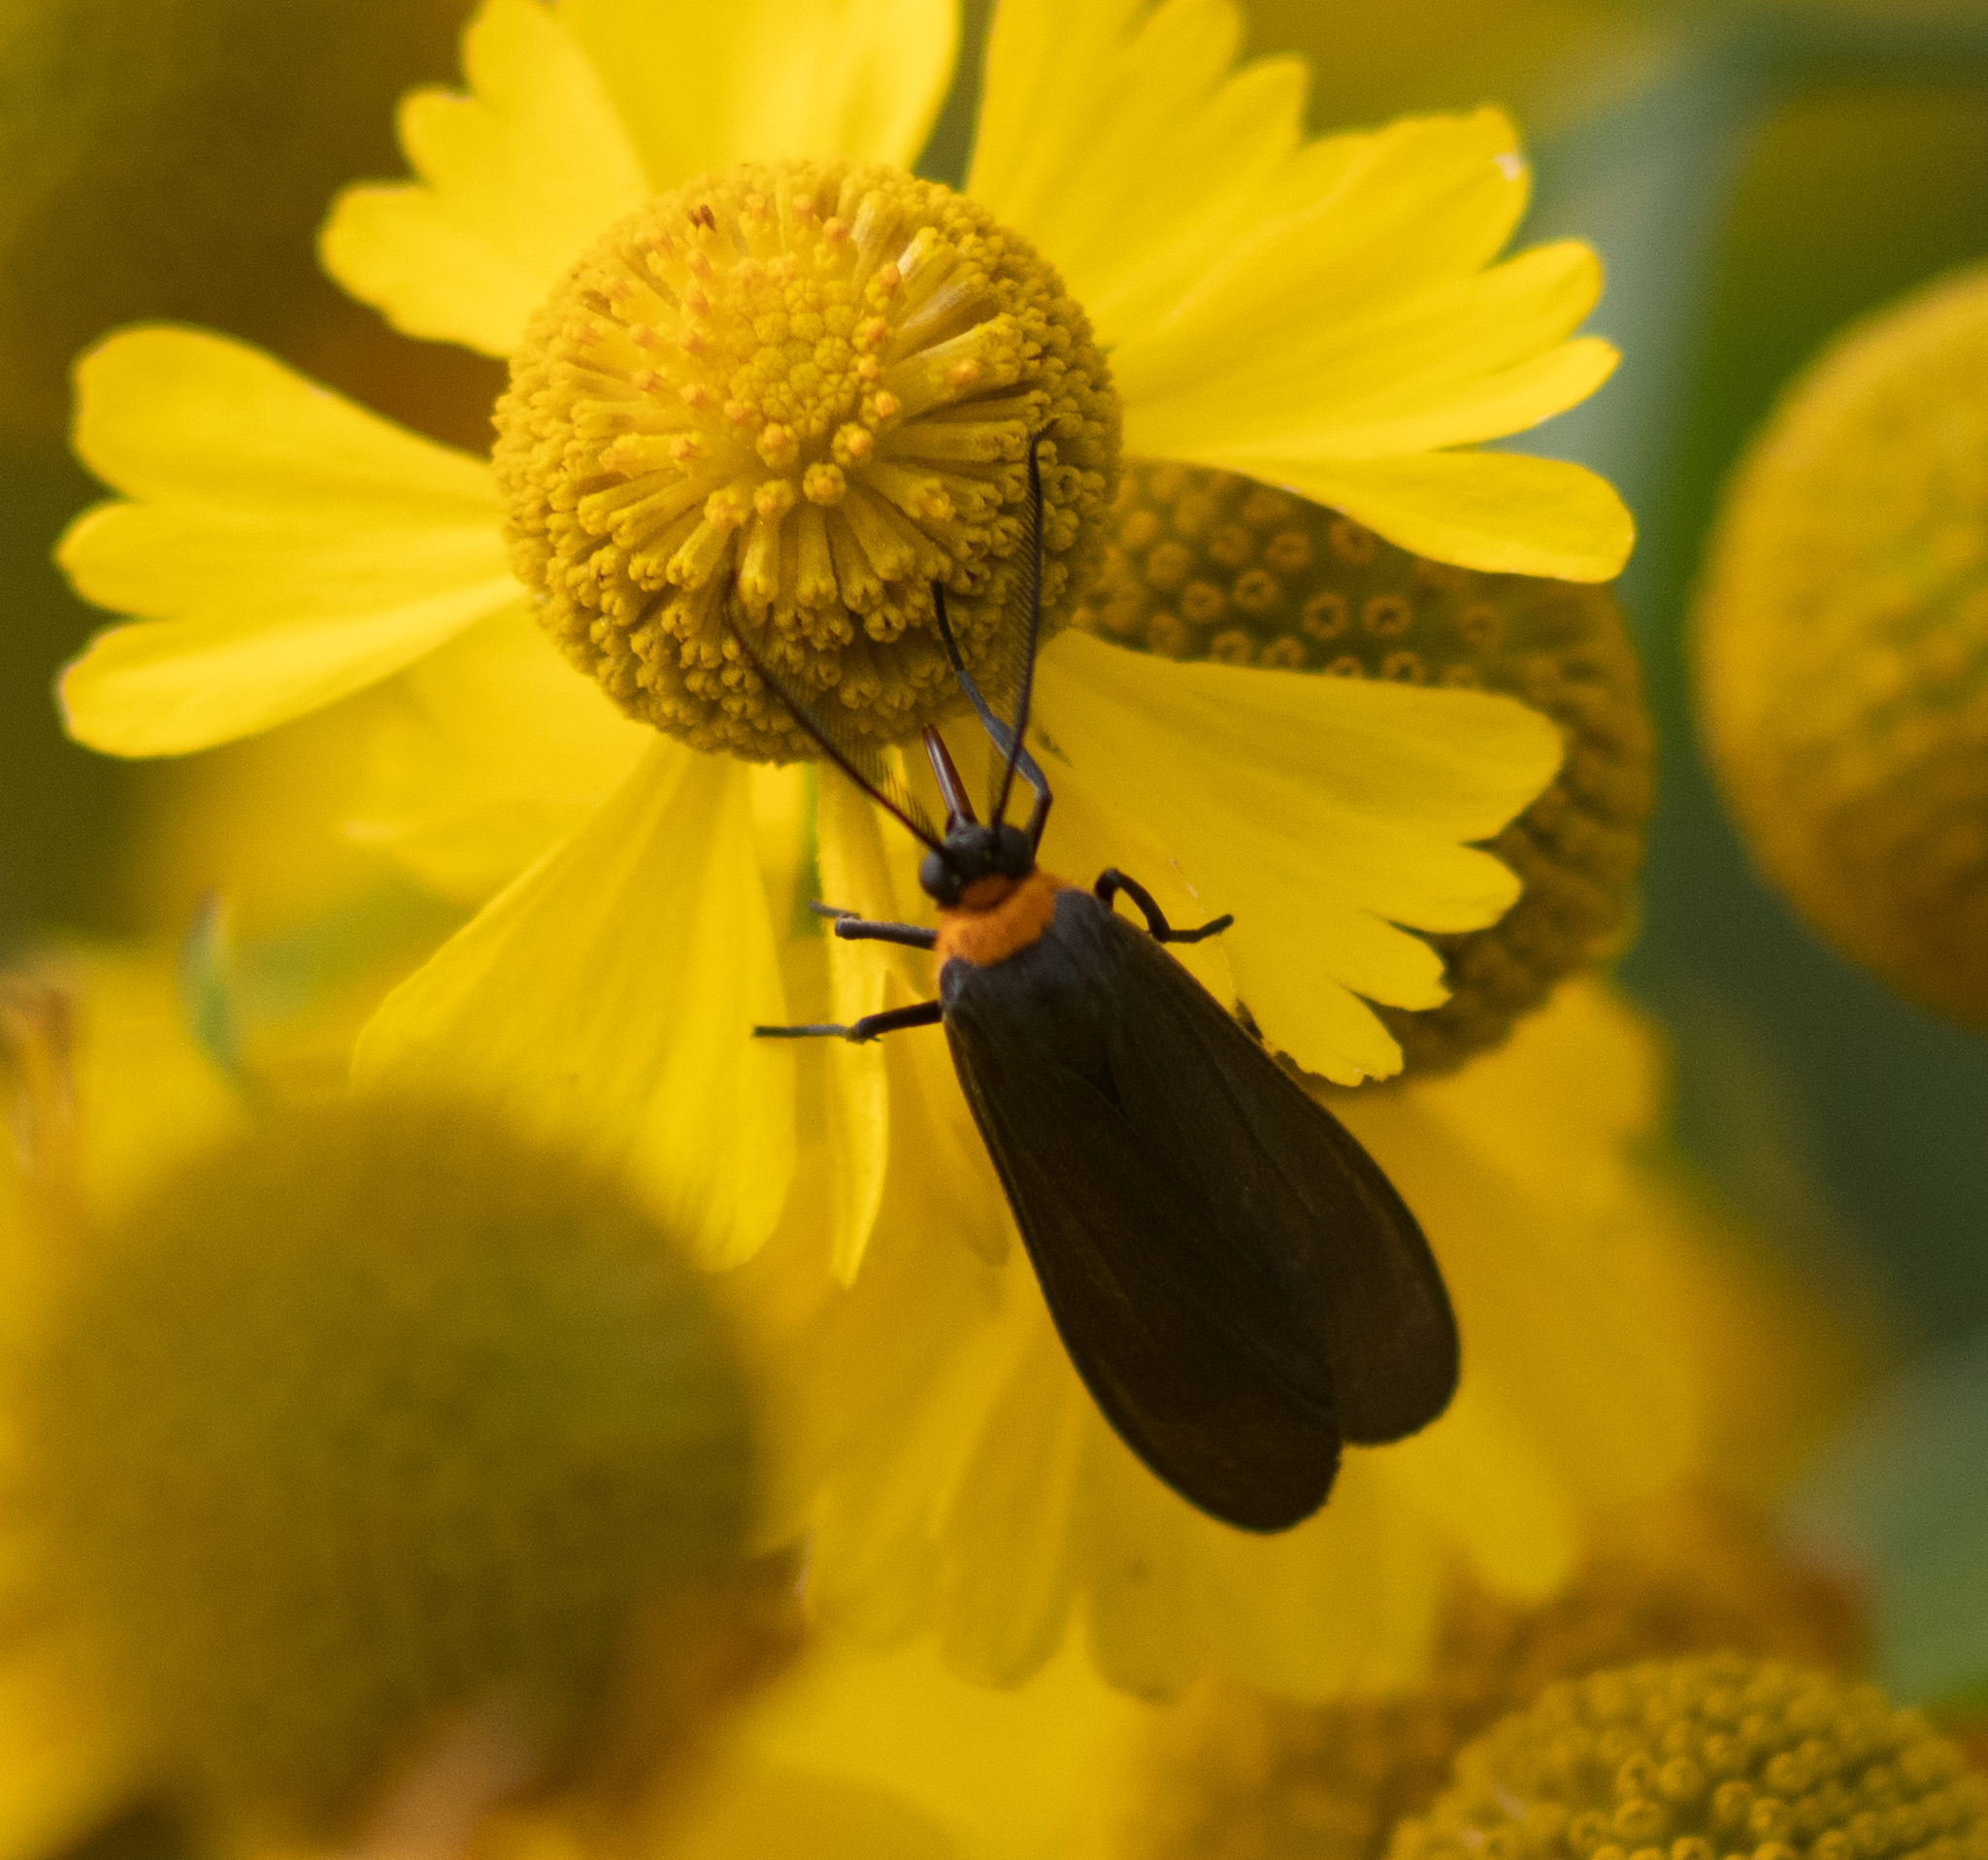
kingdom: Animalia
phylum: Arthropoda
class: Insecta
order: Lepidoptera
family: Erebidae
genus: Cisseps
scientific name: Cisseps fulvicollis
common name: Yellow-collared scape moth
